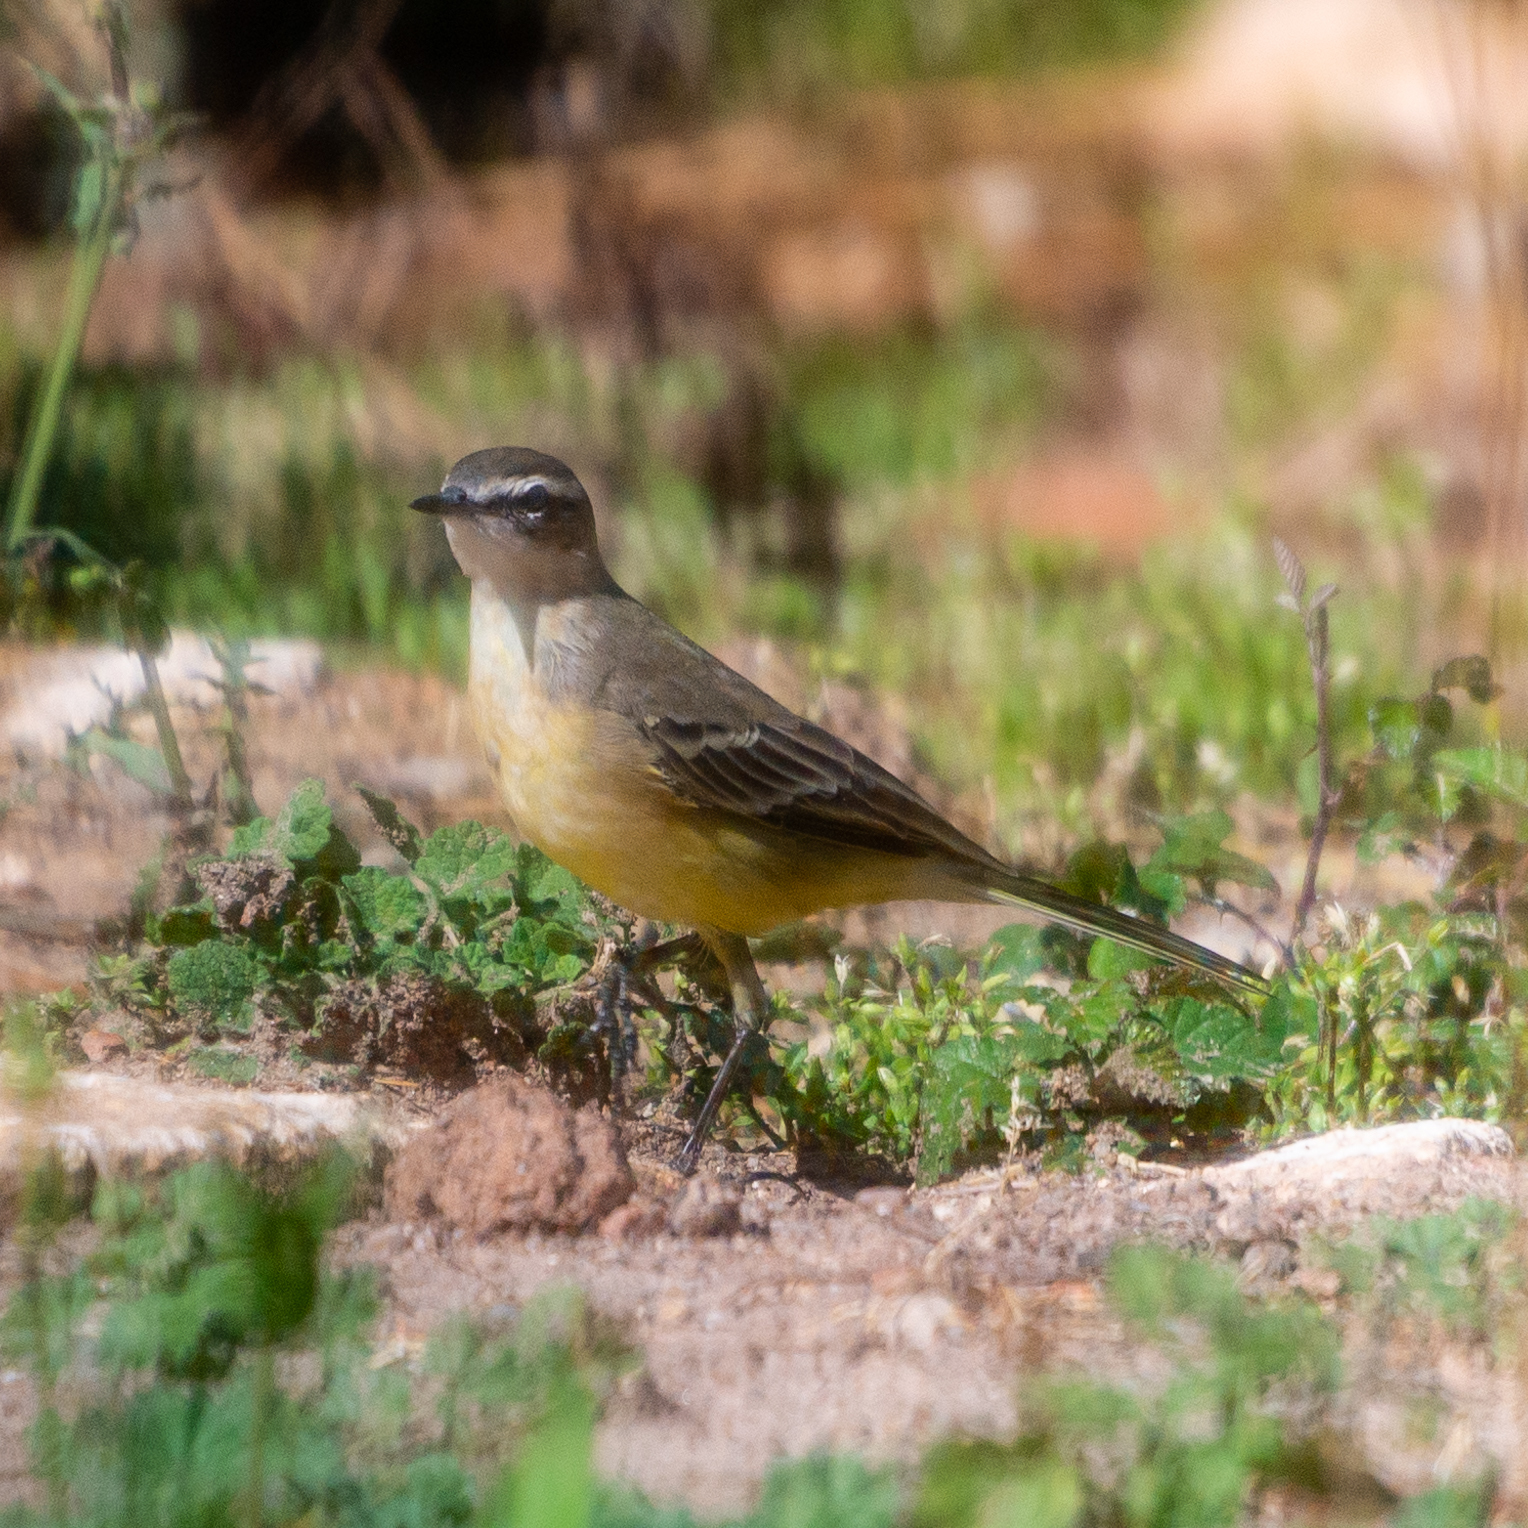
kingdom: Animalia
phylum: Chordata
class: Aves
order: Passeriformes
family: Motacillidae
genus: Motacilla
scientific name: Motacilla flava
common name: Western yellow wagtail
